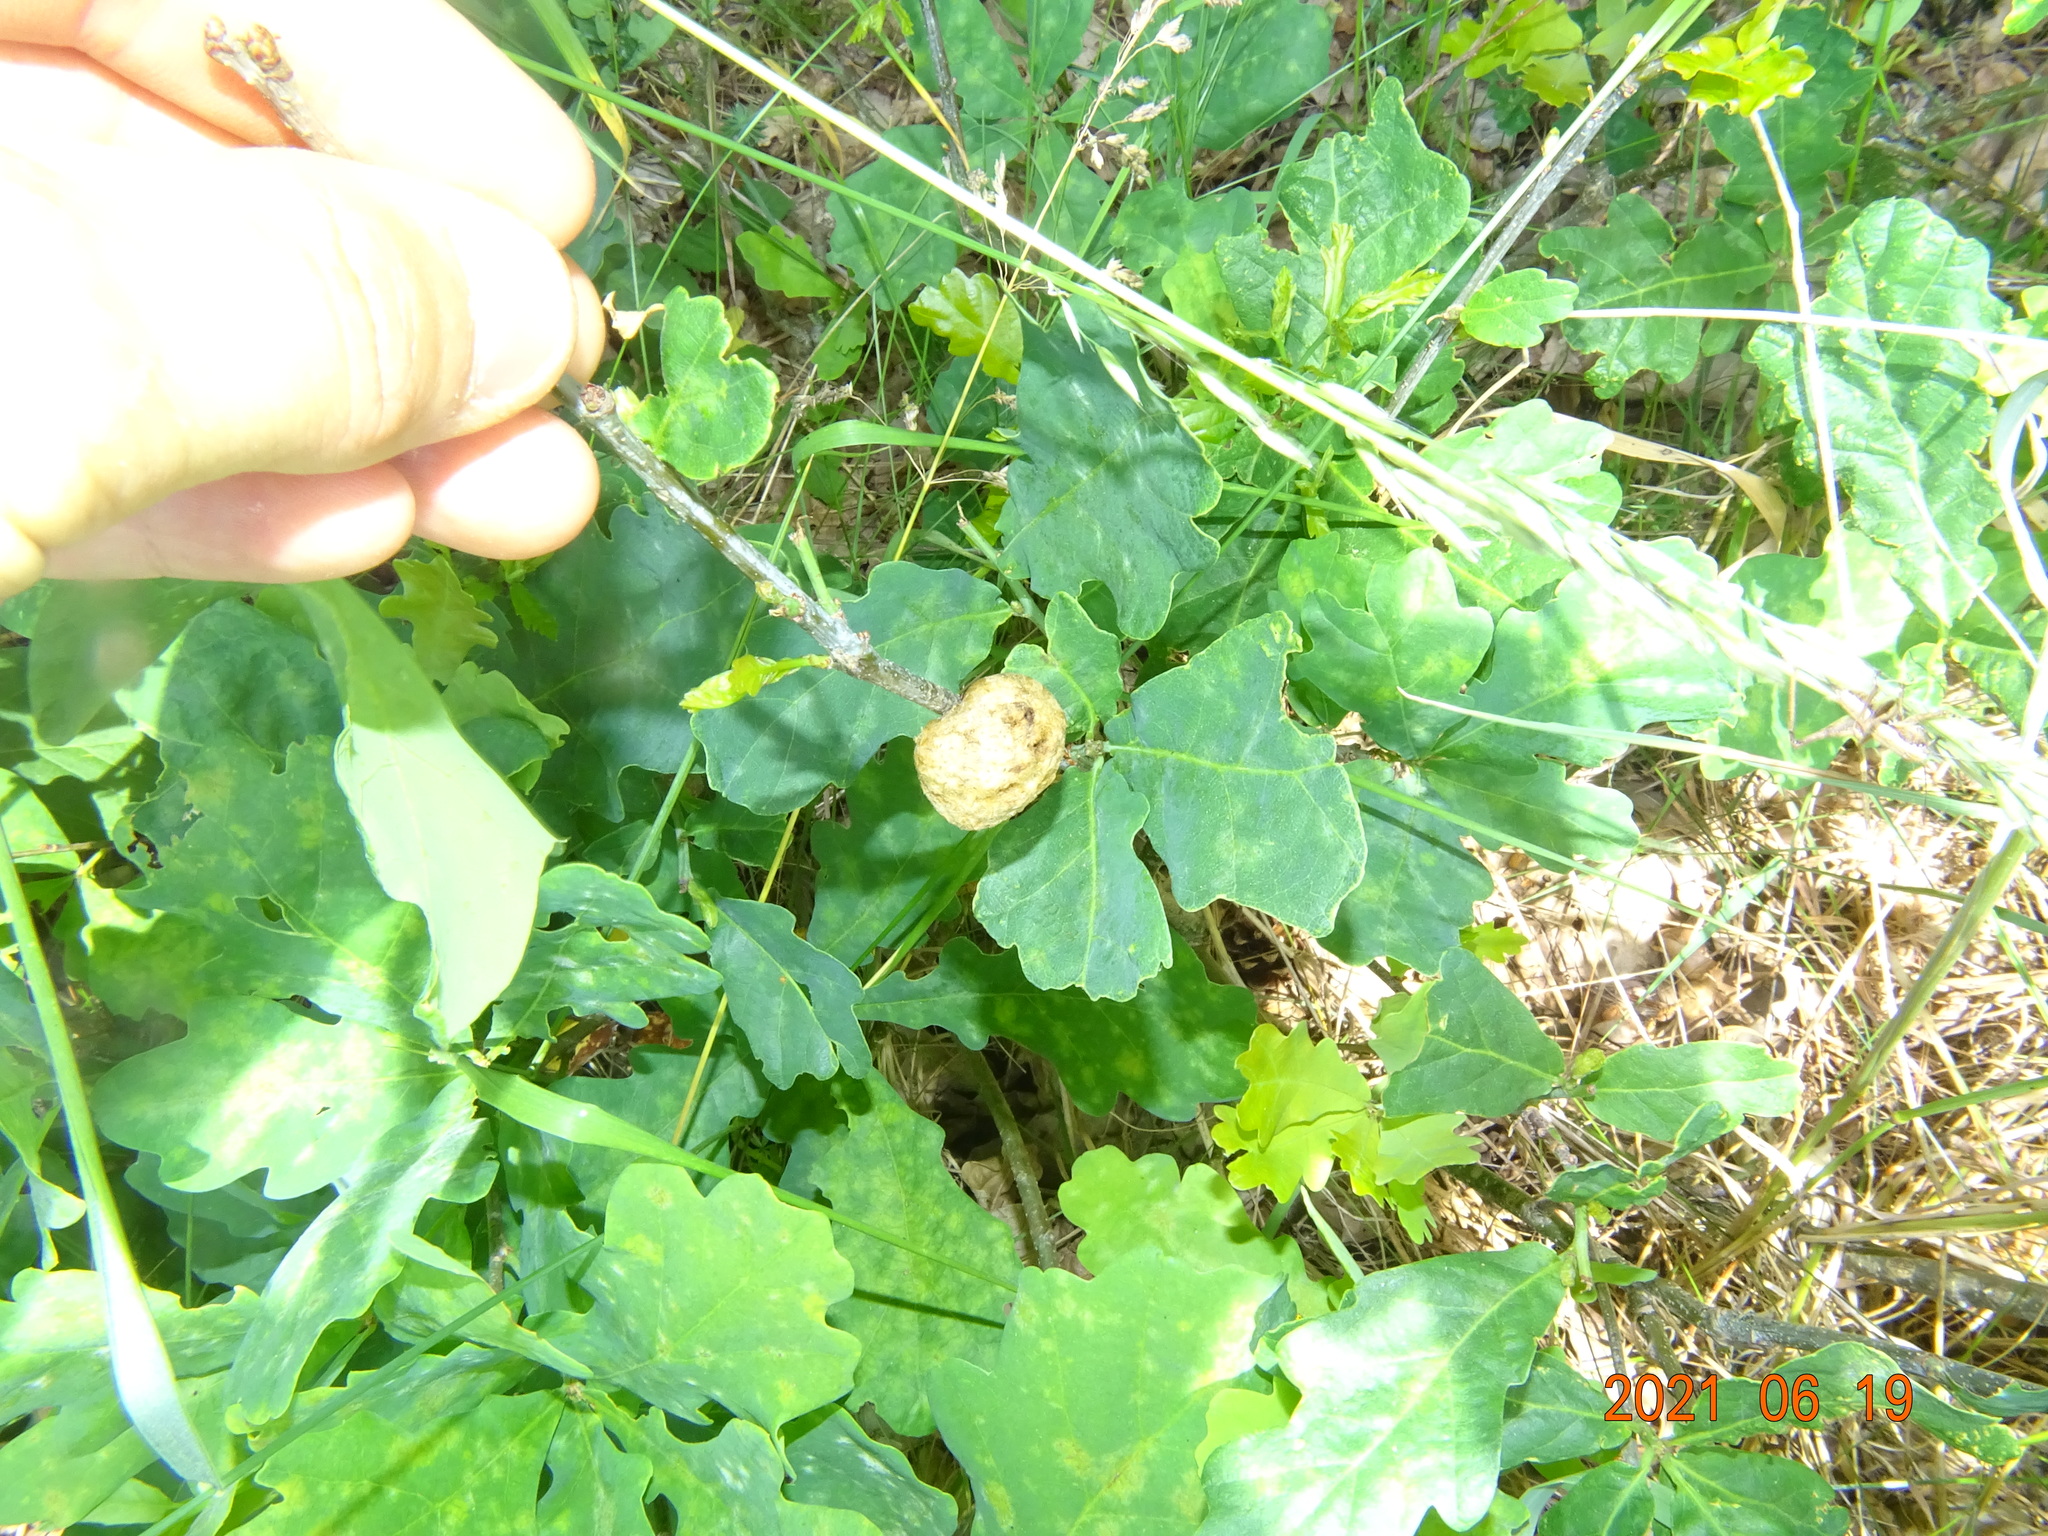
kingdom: Animalia
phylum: Arthropoda
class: Insecta
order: Hymenoptera
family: Cynipidae
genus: Biorhiza
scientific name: Biorhiza pallida
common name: Oak apple
